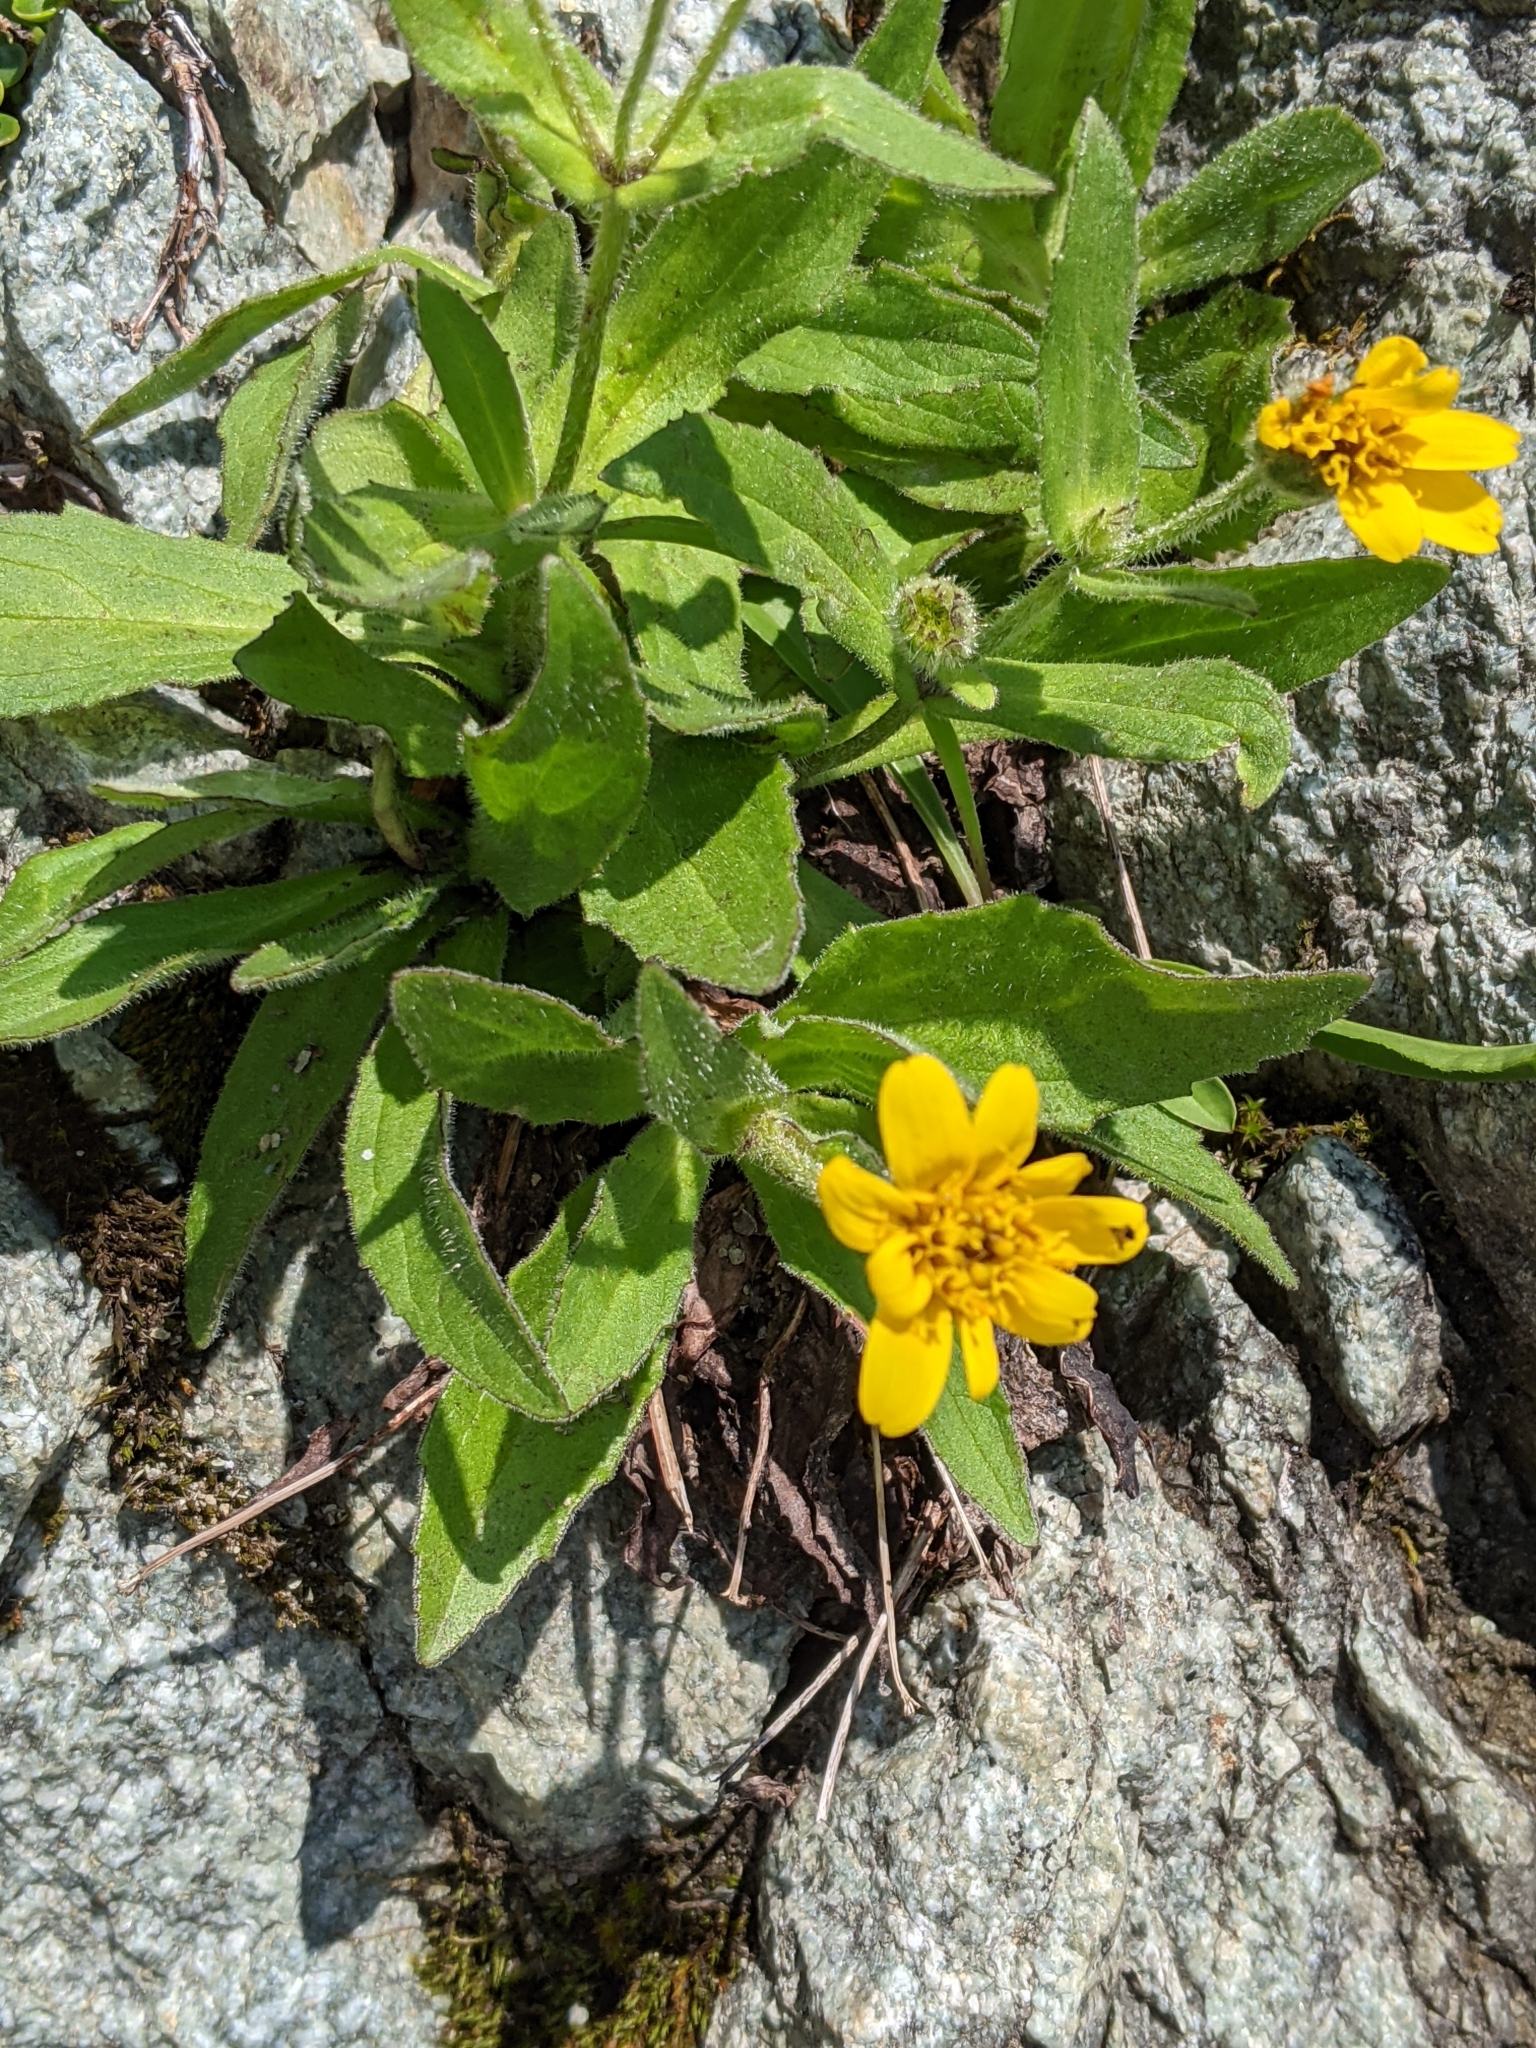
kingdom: Plantae
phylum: Tracheophyta
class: Magnoliopsida
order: Asterales
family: Asteraceae
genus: Arnica
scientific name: Arnica latifolia
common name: Arnica
